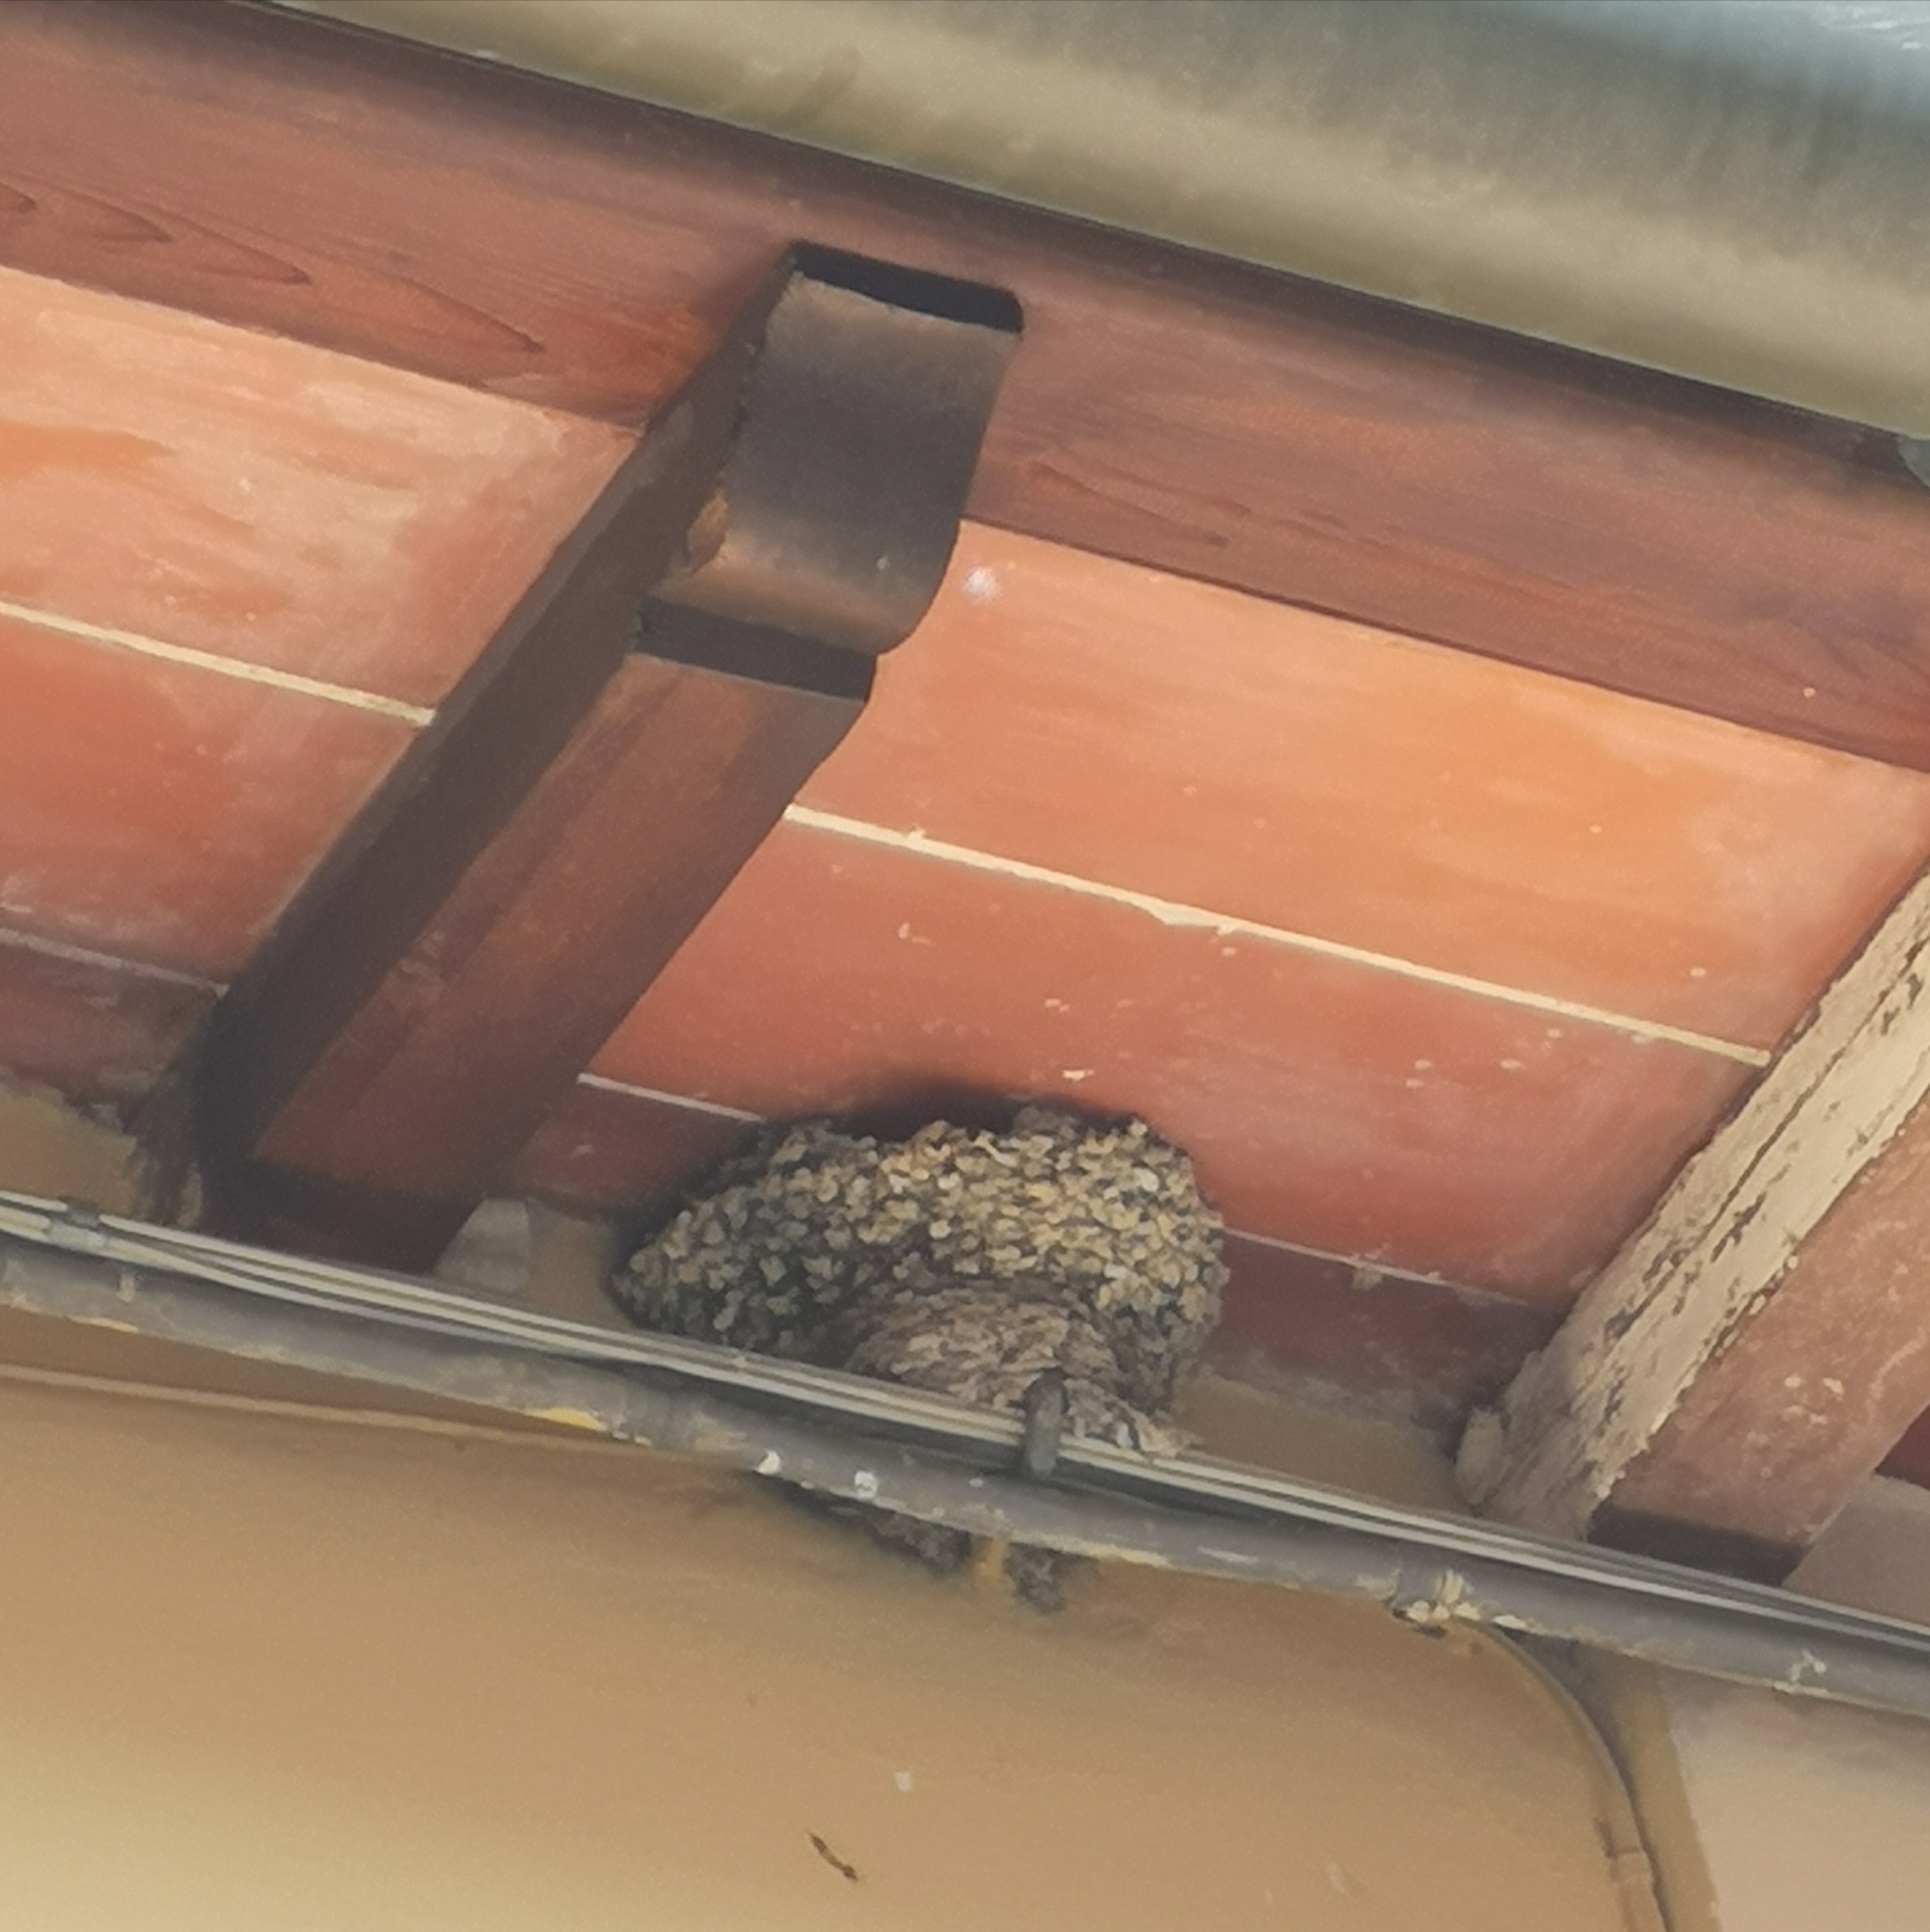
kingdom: Animalia
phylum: Chordata
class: Aves
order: Passeriformes
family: Hirundinidae
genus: Delichon
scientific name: Delichon urbicum
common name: Common house martin
